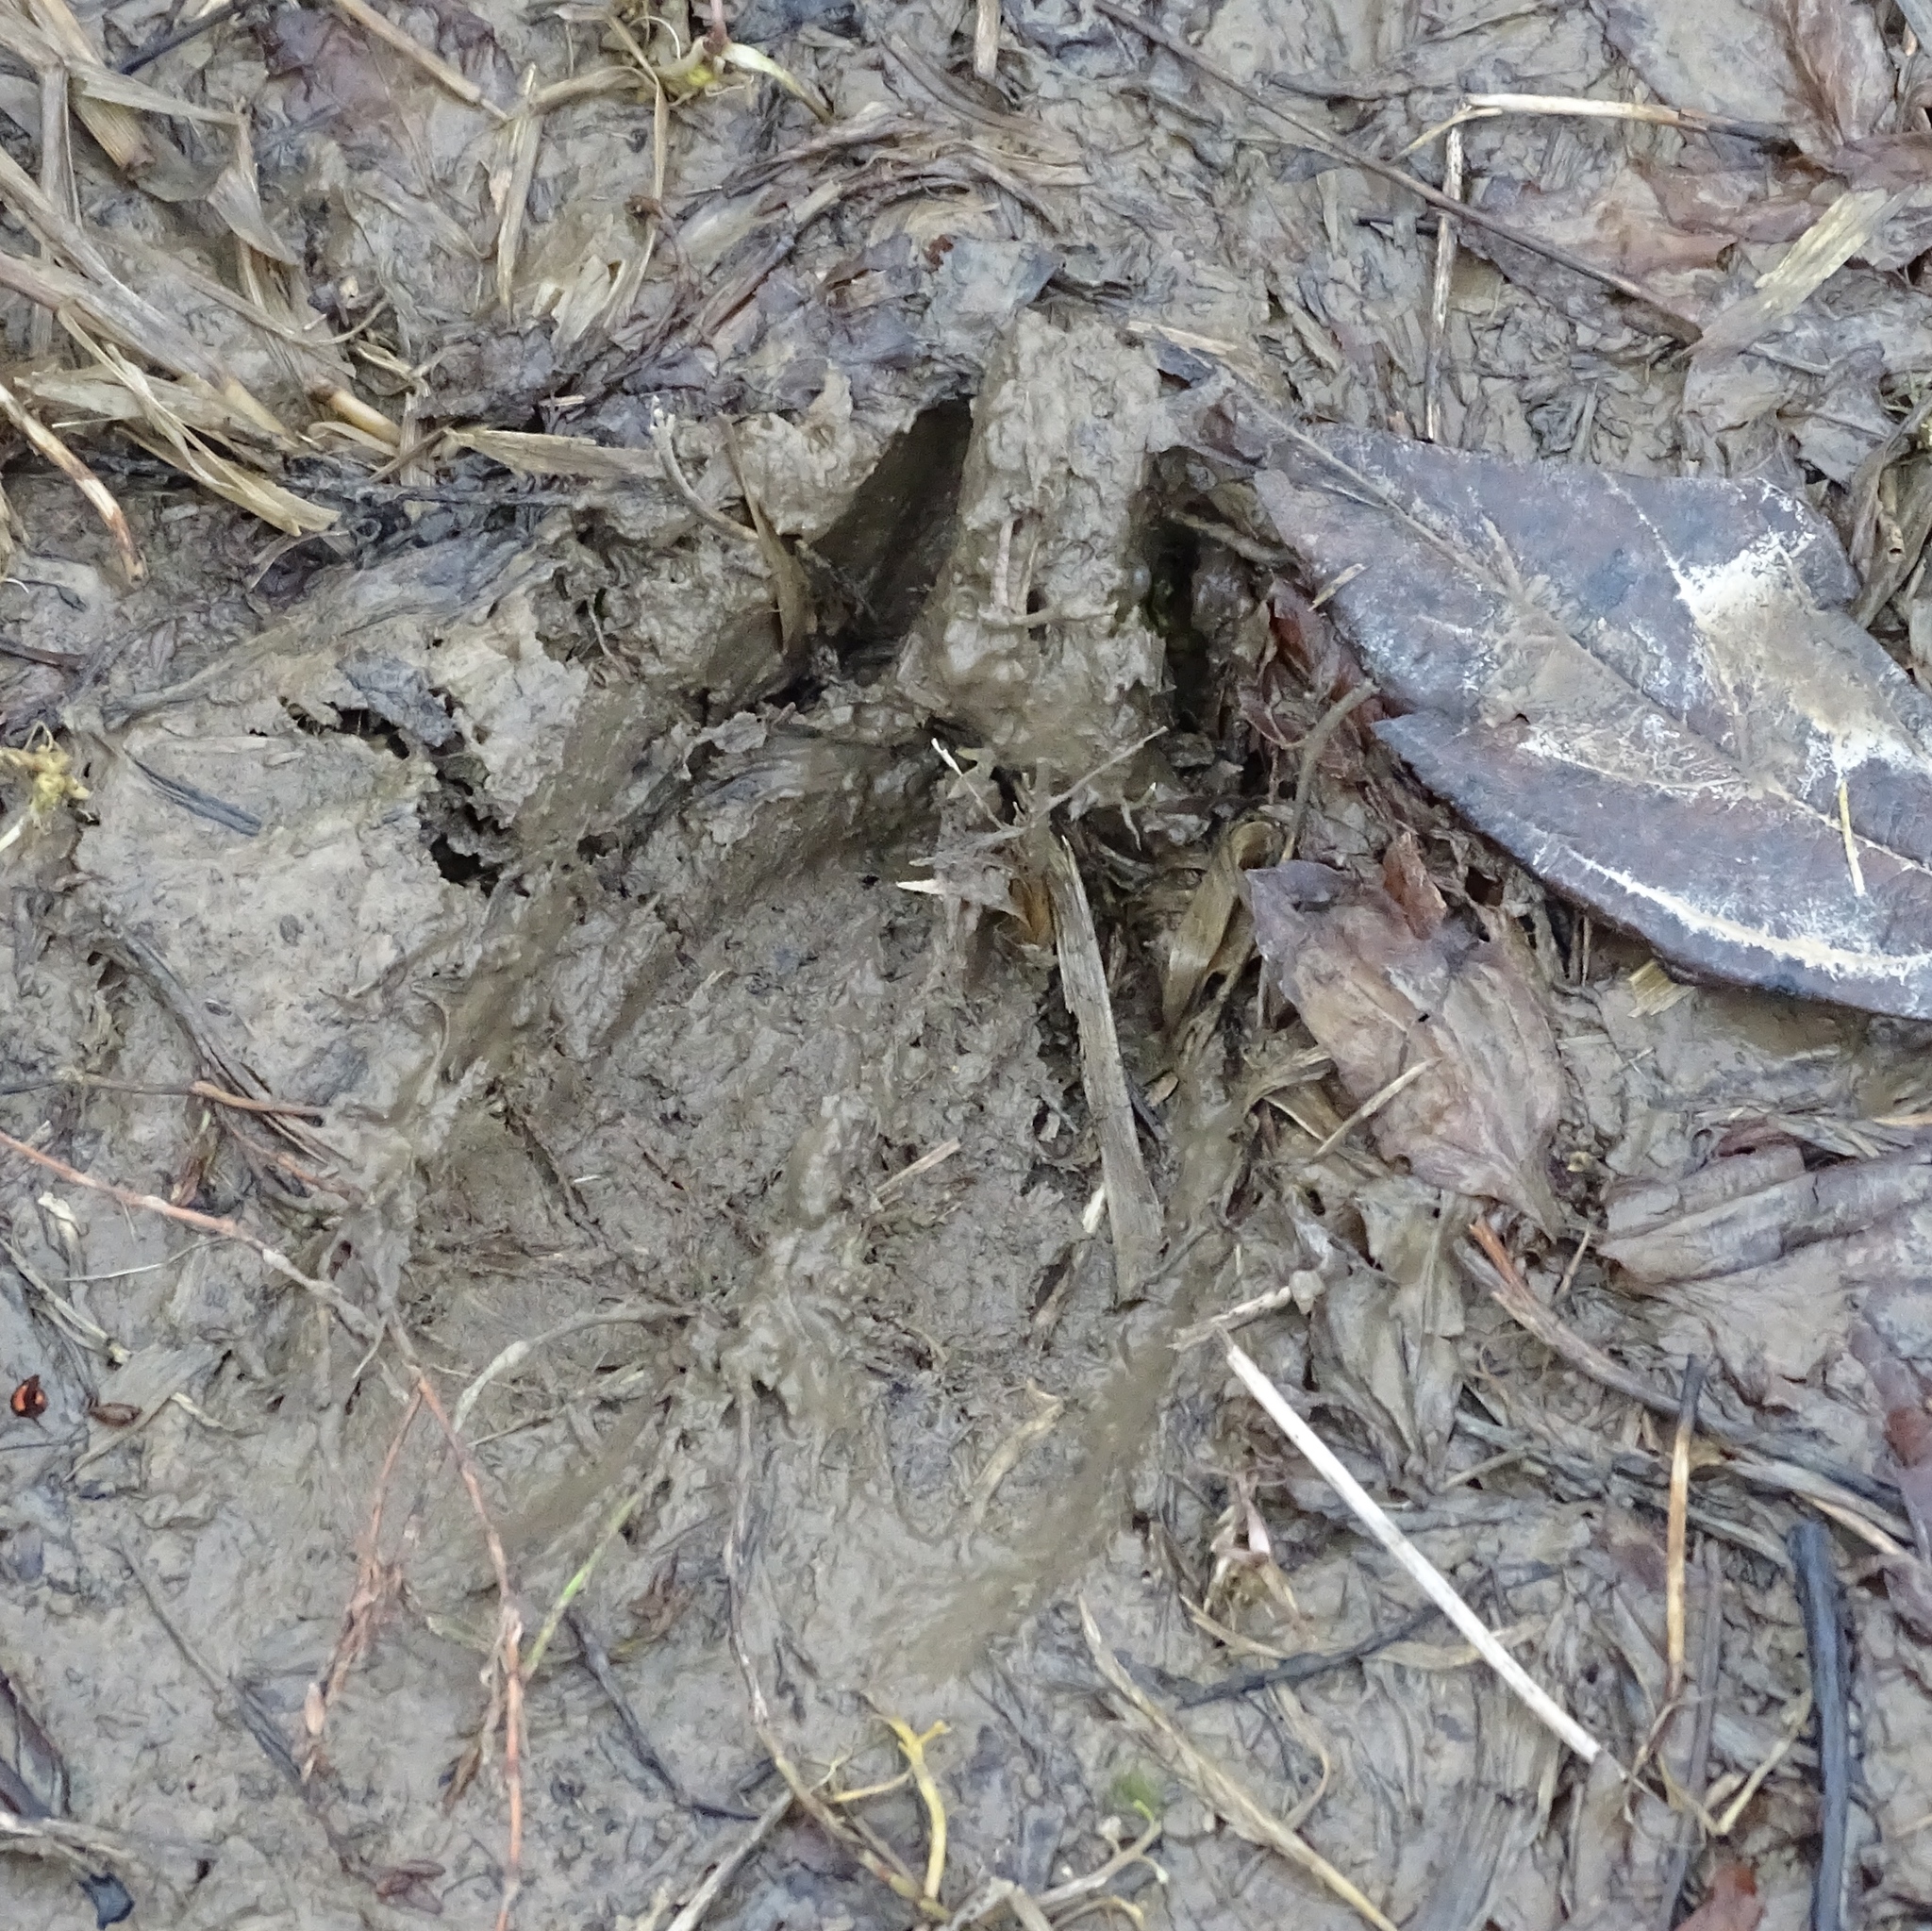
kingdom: Animalia
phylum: Chordata
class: Mammalia
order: Artiodactyla
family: Cervidae
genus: Odocoileus
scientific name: Odocoileus virginianus
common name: White-tailed deer
